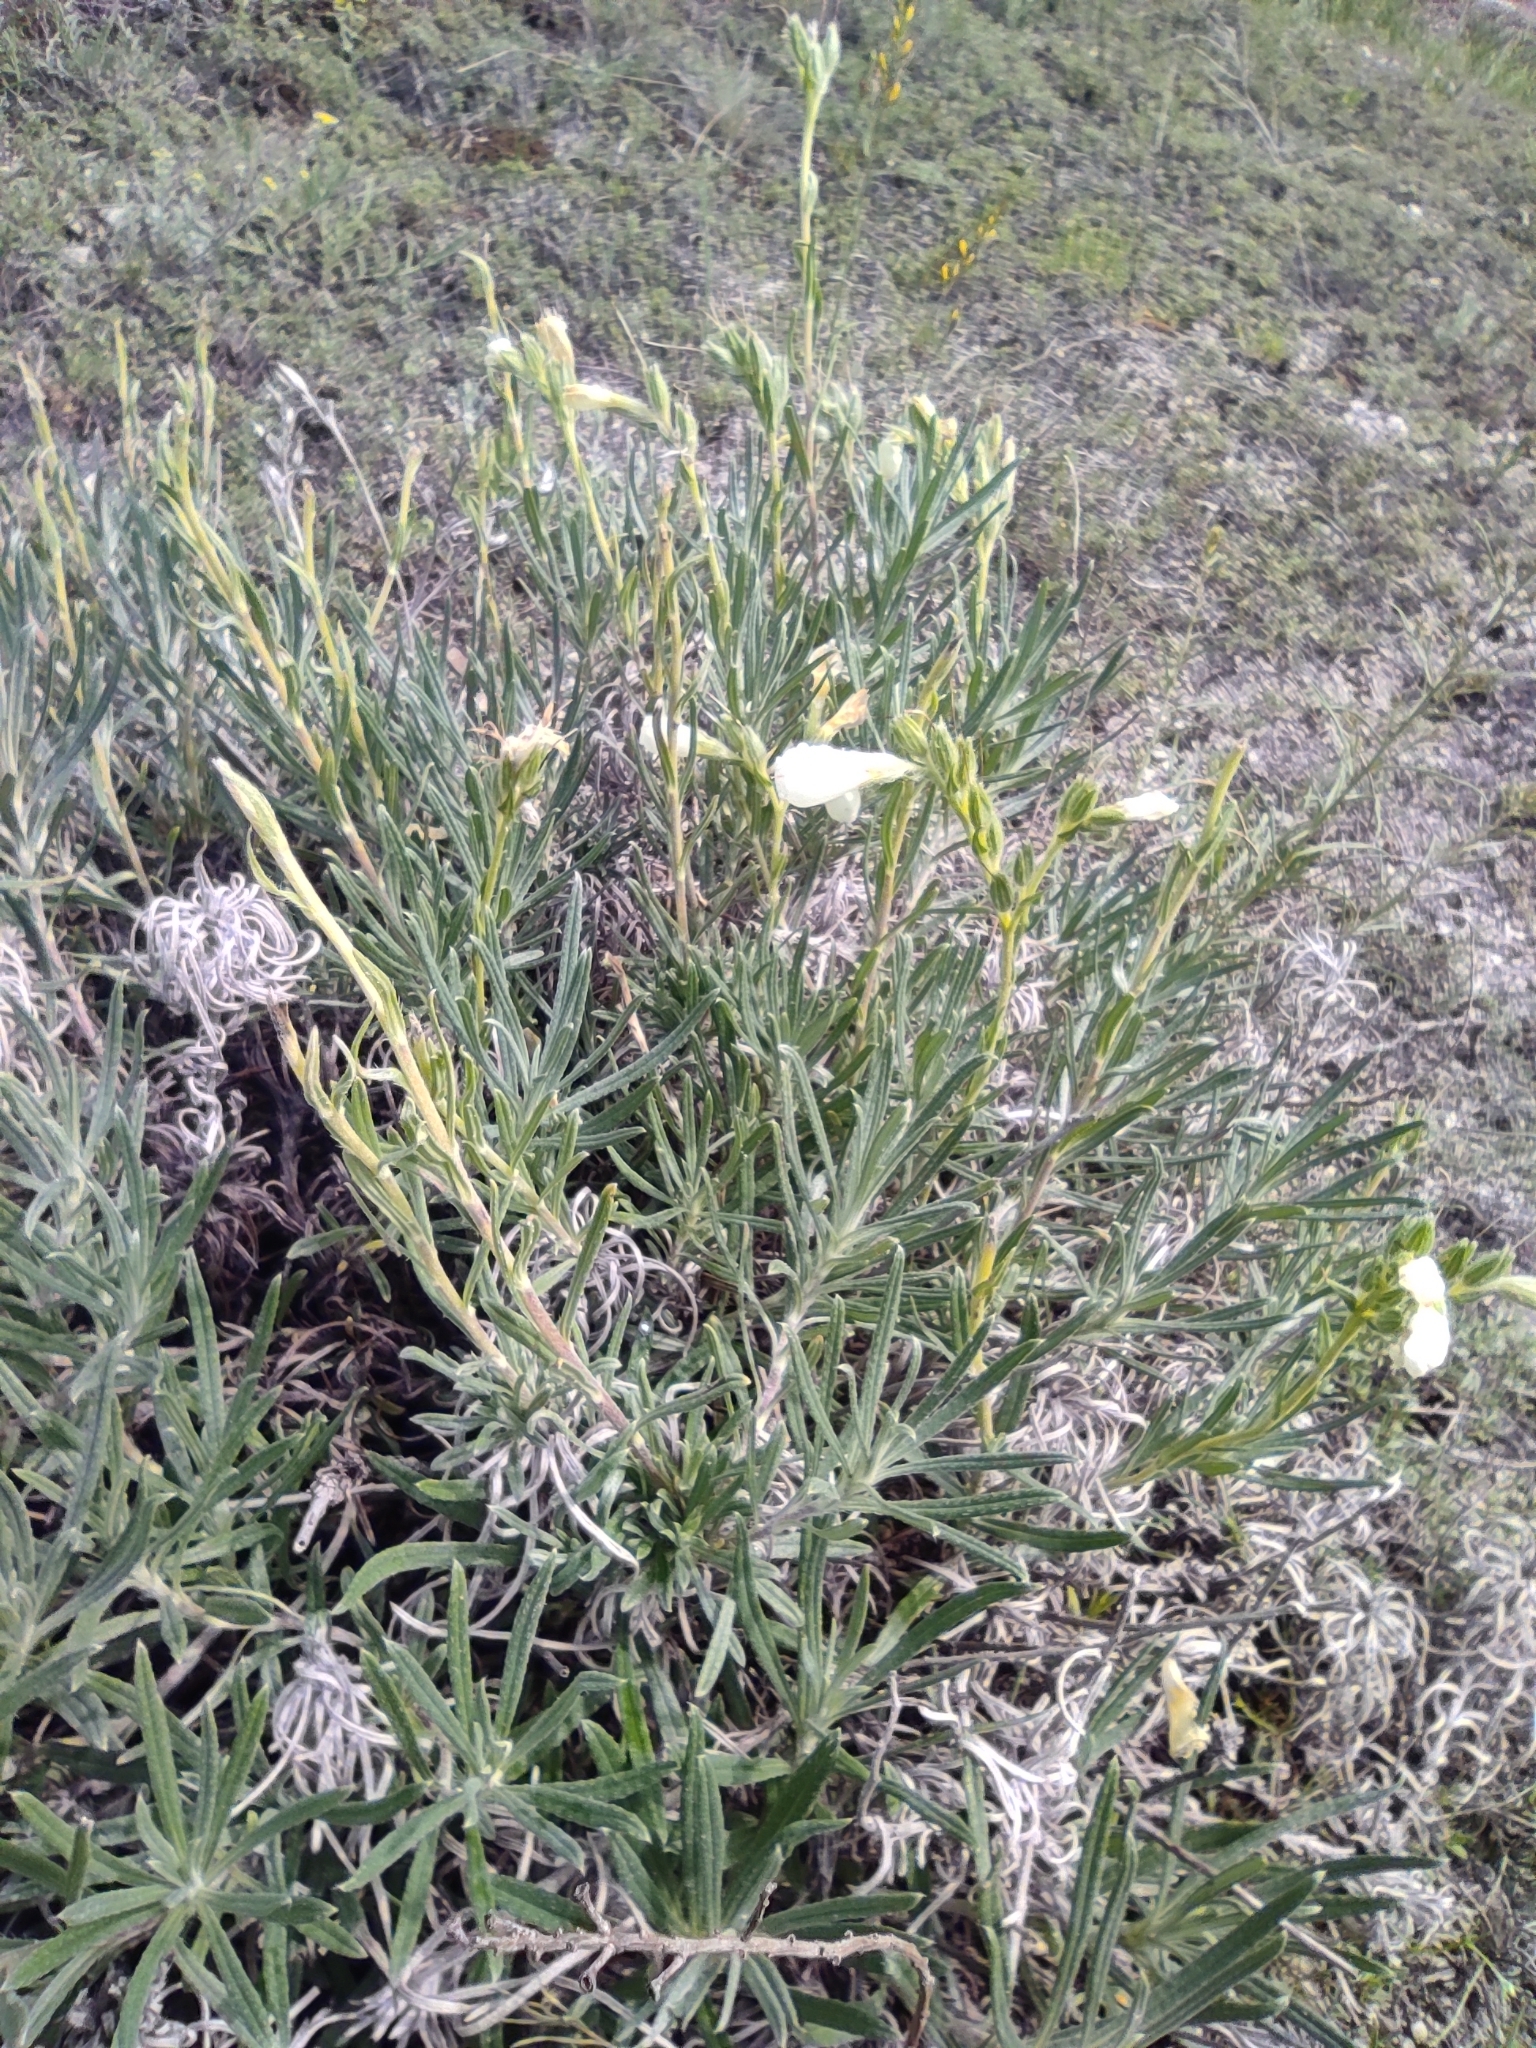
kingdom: Plantae
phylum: Tracheophyta
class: Magnoliopsida
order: Boraginales
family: Boraginaceae
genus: Onosma
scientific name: Onosma simplicissima
